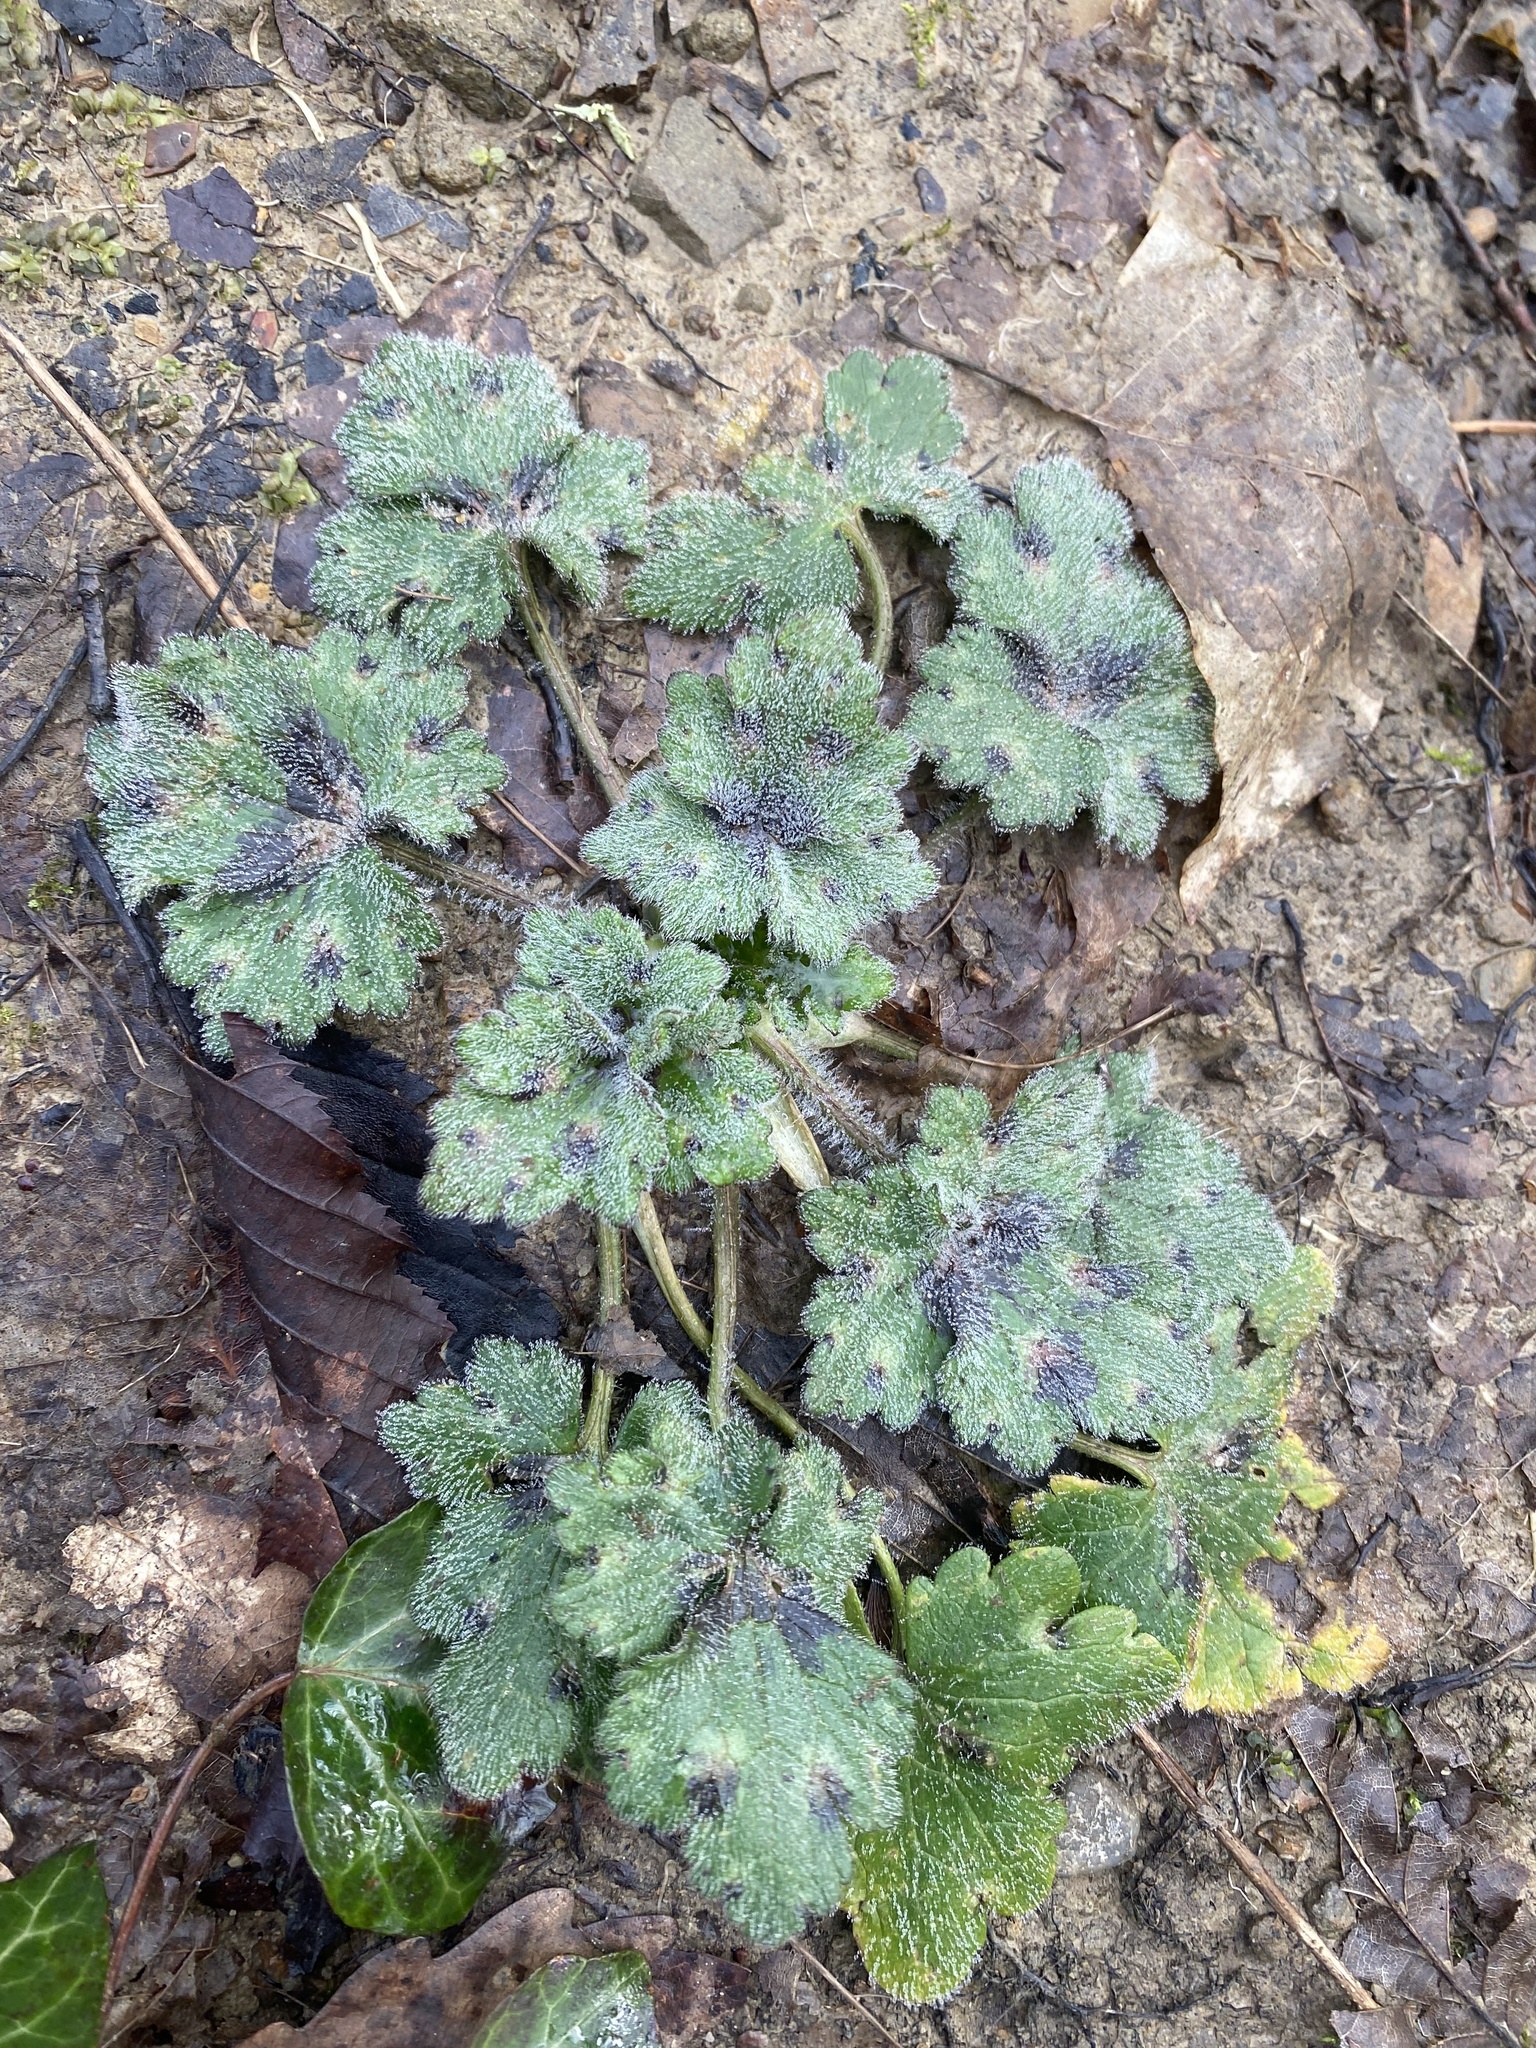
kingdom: Plantae
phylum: Tracheophyta
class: Magnoliopsida
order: Ranunculales
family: Ranunculaceae
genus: Ranunculus
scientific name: Ranunculus constantinopolitanus
